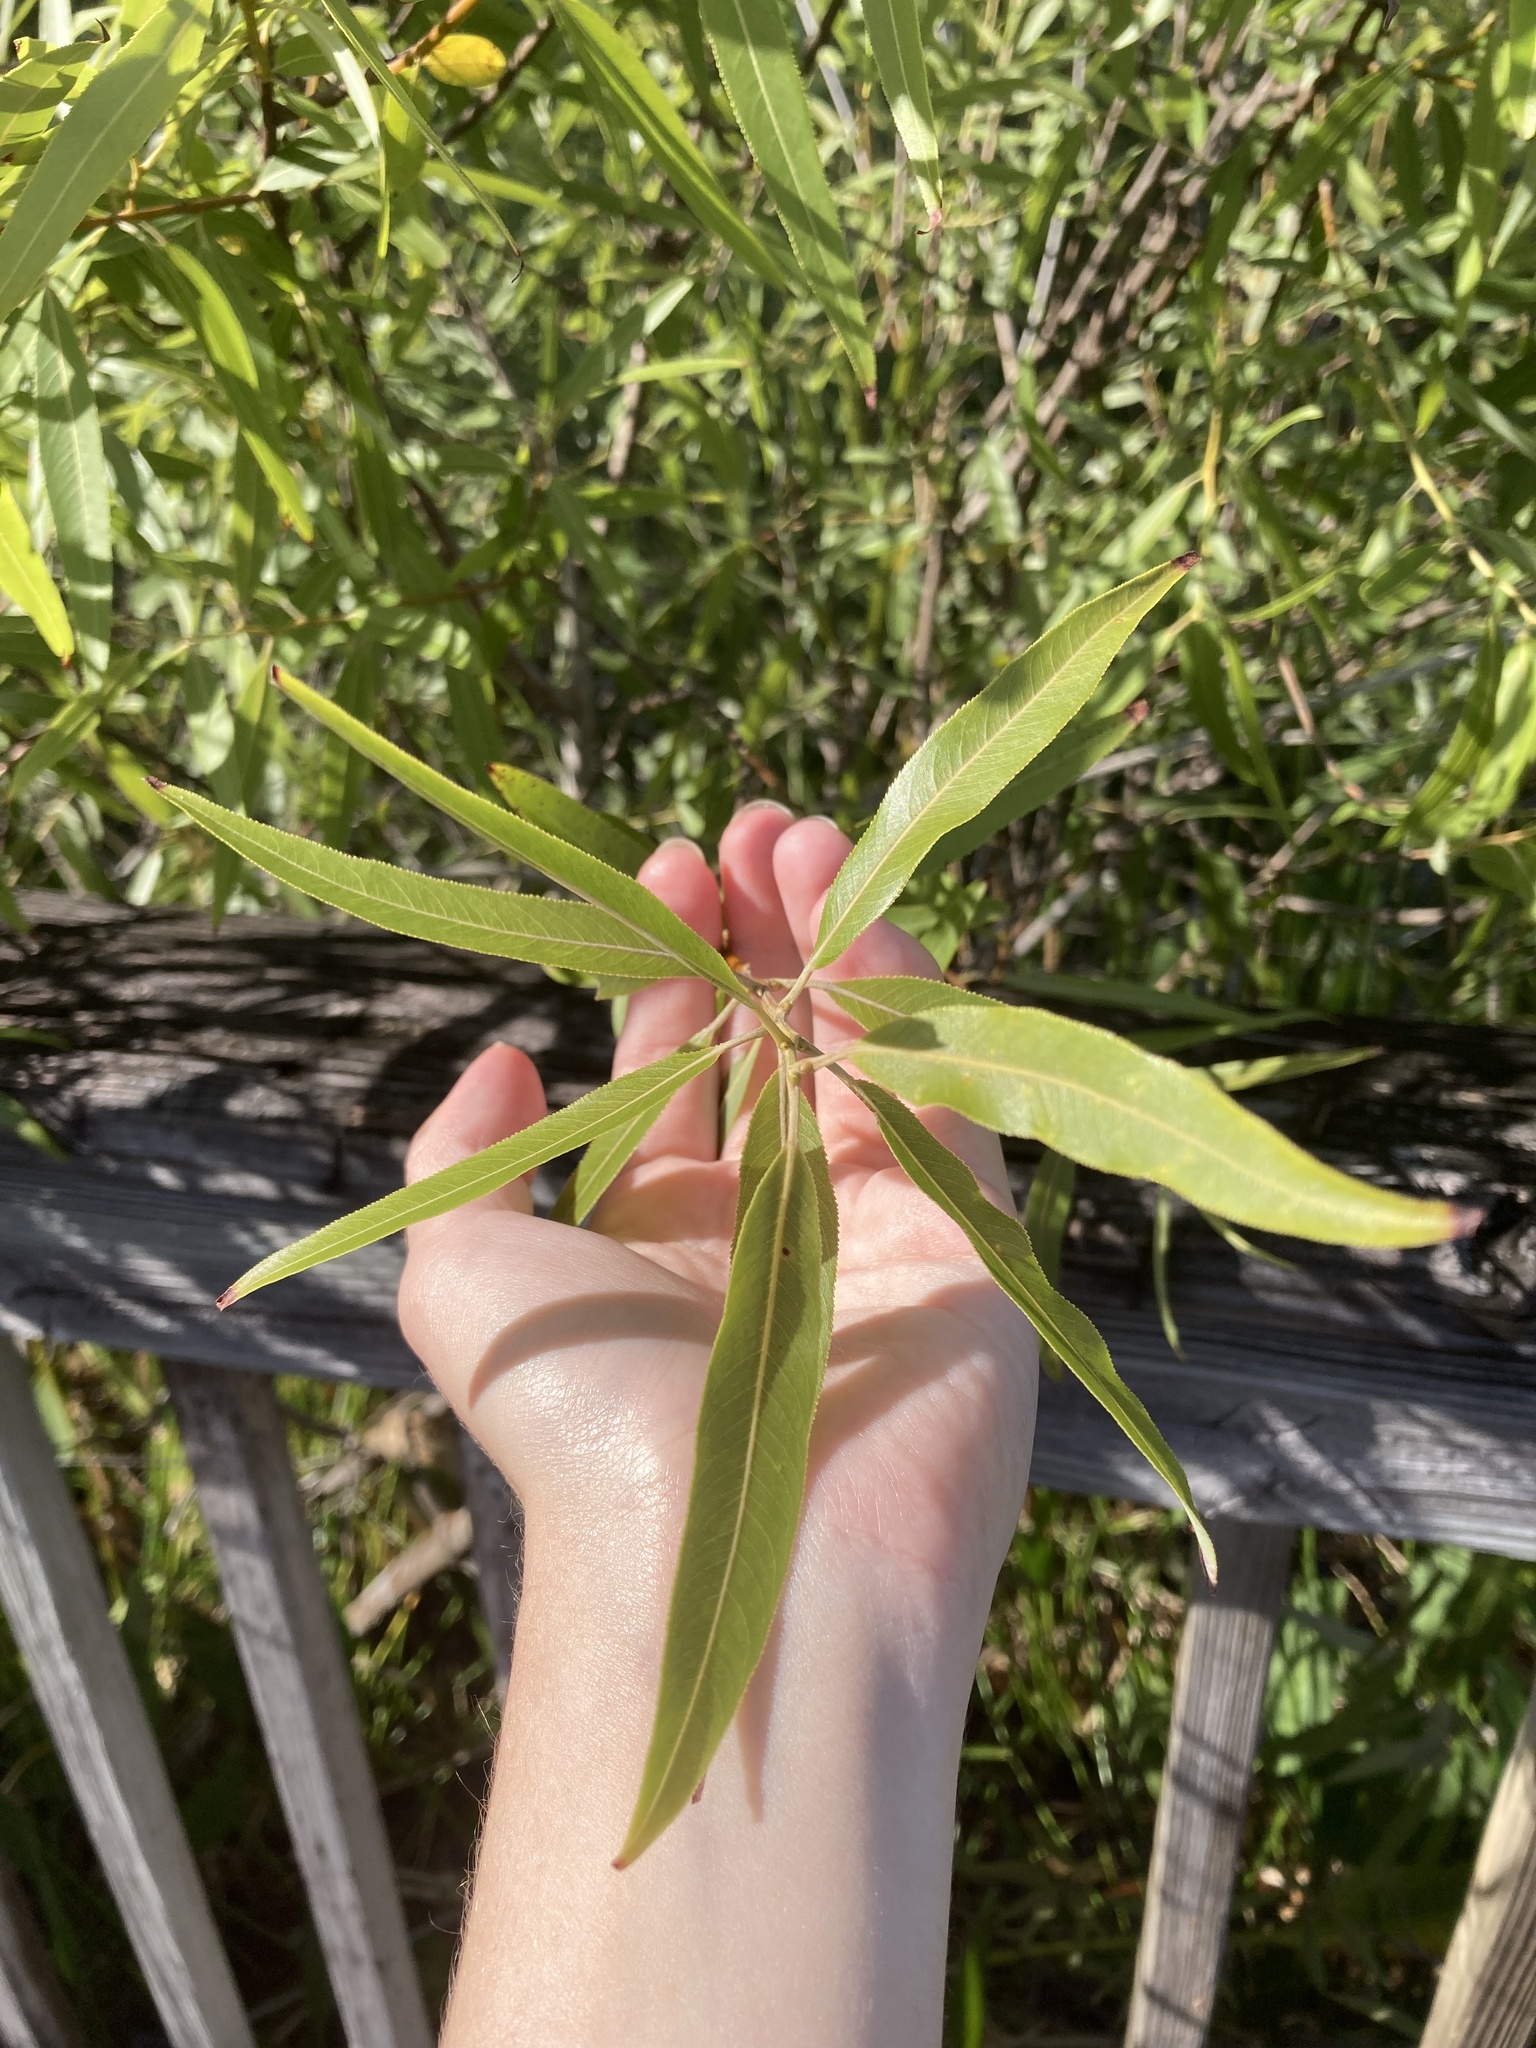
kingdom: Plantae
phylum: Tracheophyta
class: Magnoliopsida
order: Malpighiales
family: Salicaceae
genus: Salix
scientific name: Salix caroliniana
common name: Carolina willow
